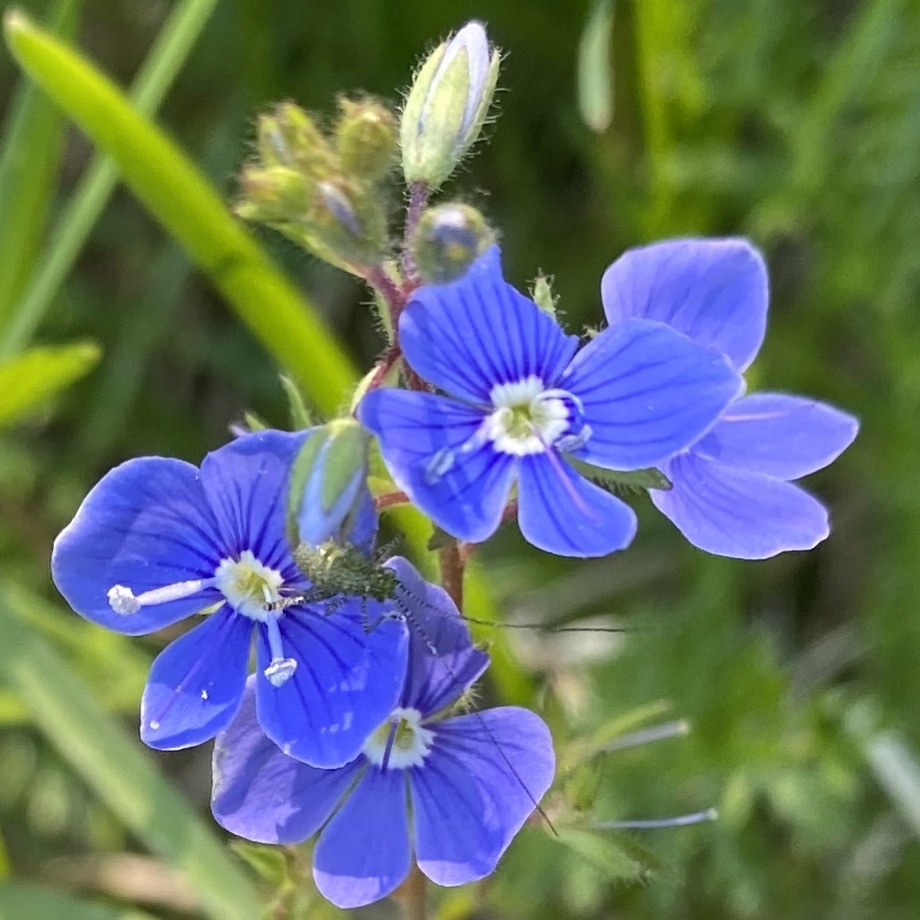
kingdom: Plantae
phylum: Tracheophyta
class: Magnoliopsida
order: Lamiales
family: Plantaginaceae
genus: Veronica
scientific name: Veronica chamaedrys
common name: Germander speedwell
